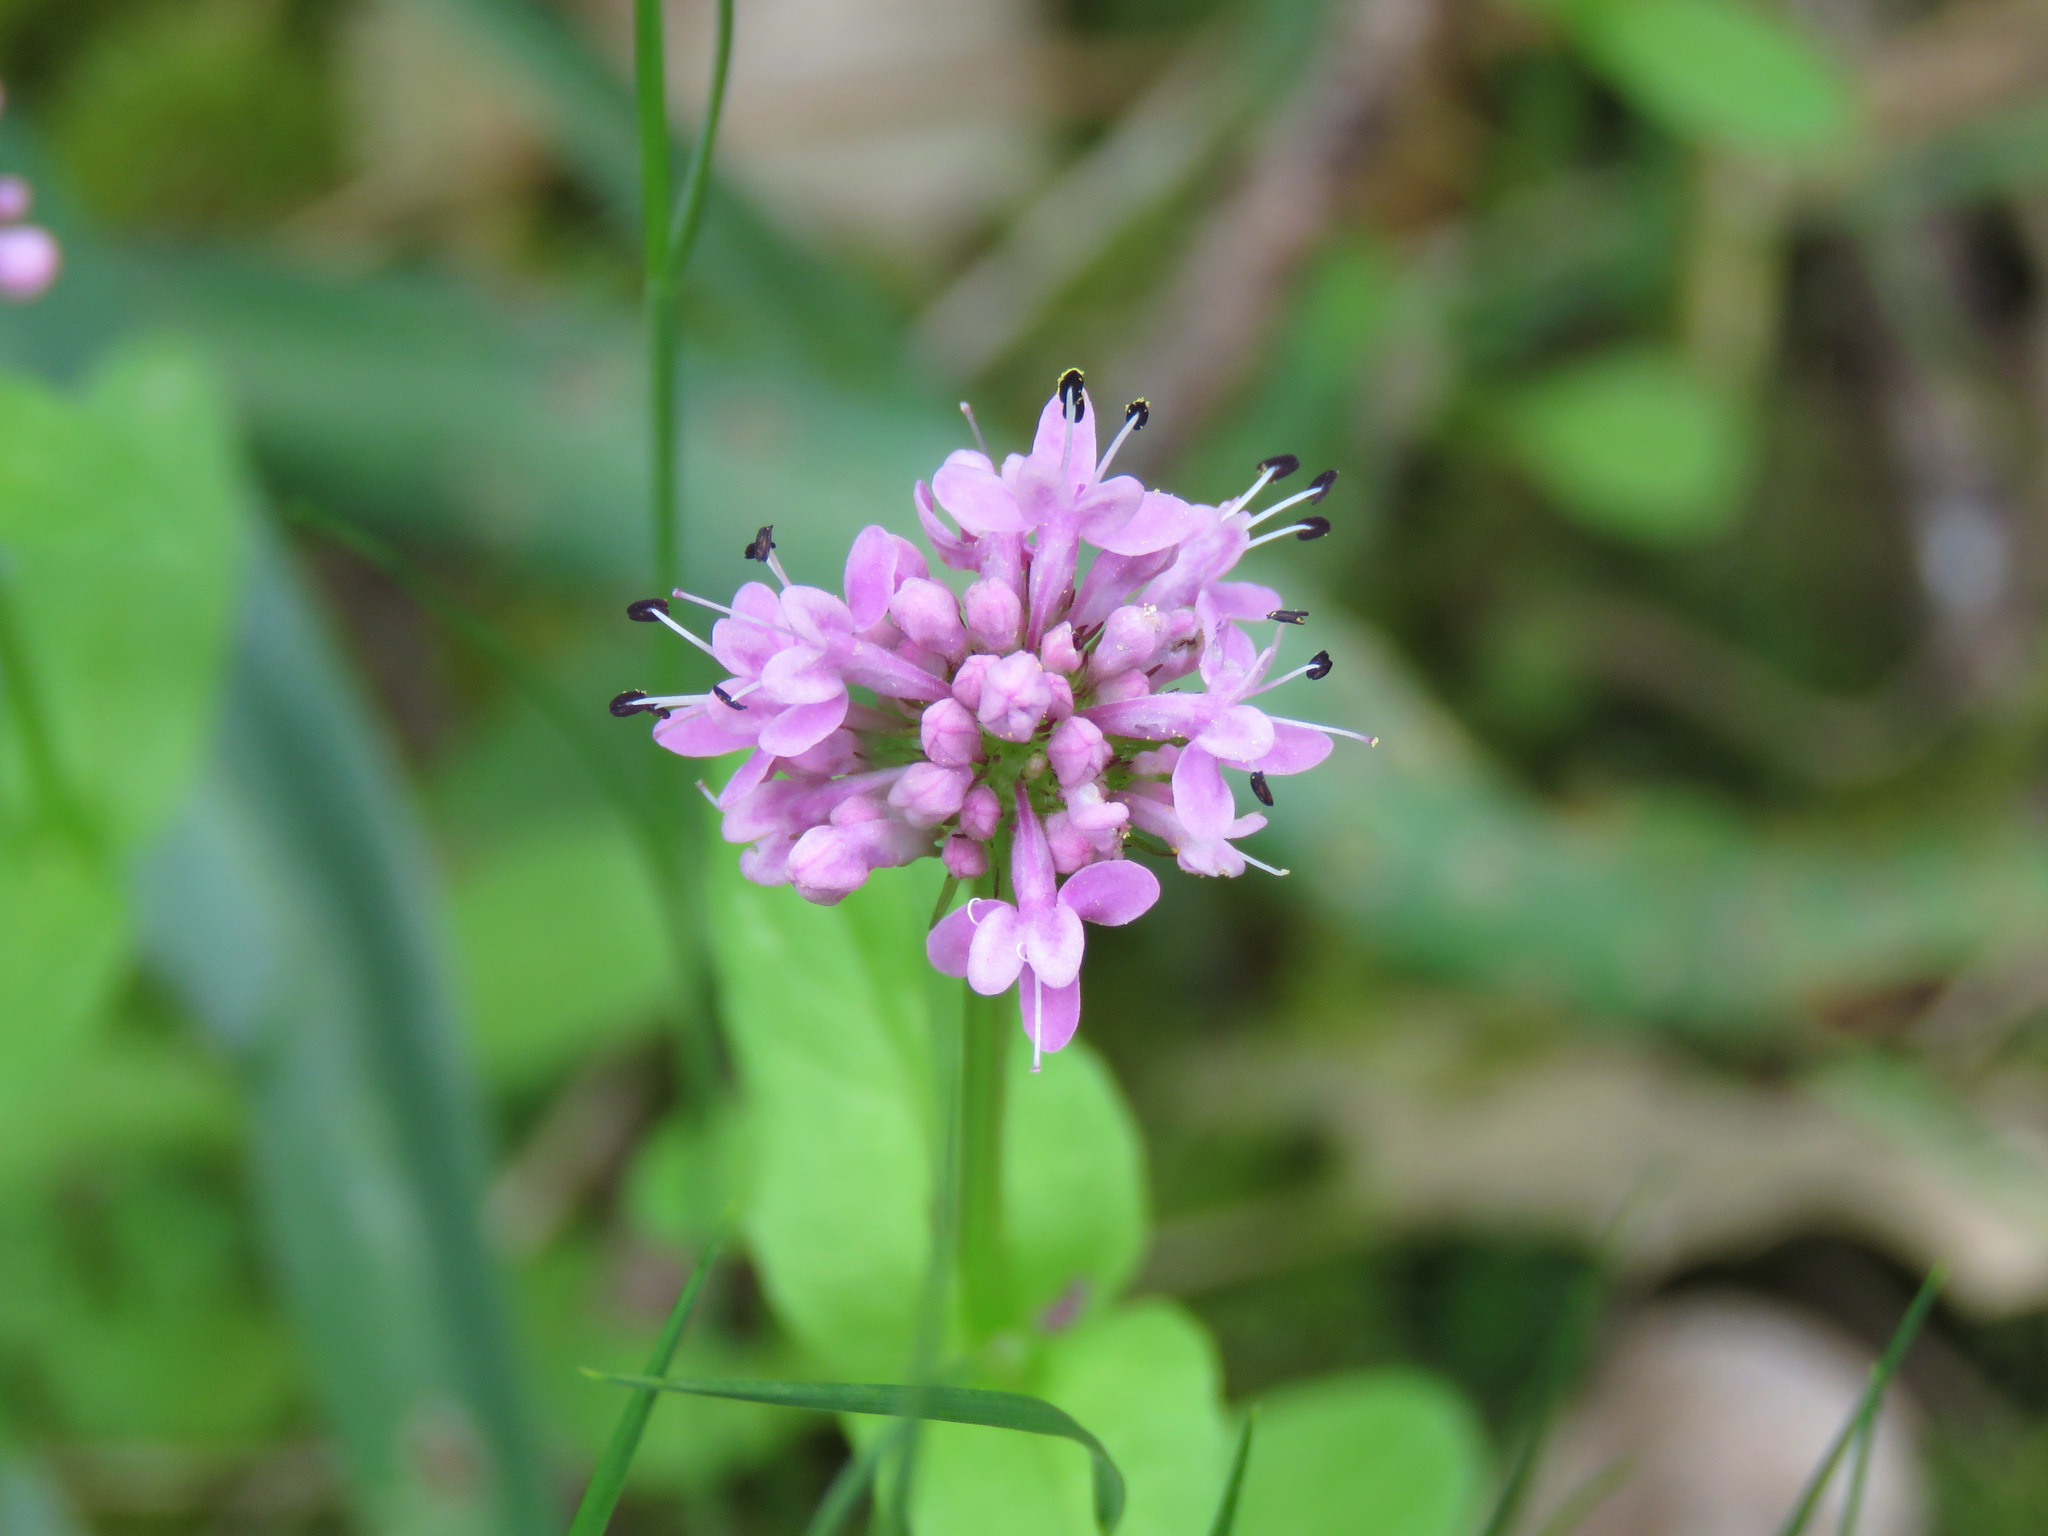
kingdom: Plantae
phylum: Tracheophyta
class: Magnoliopsida
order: Dipsacales
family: Caprifoliaceae
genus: Plectritis
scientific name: Plectritis congesta
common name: Pink plectritis
